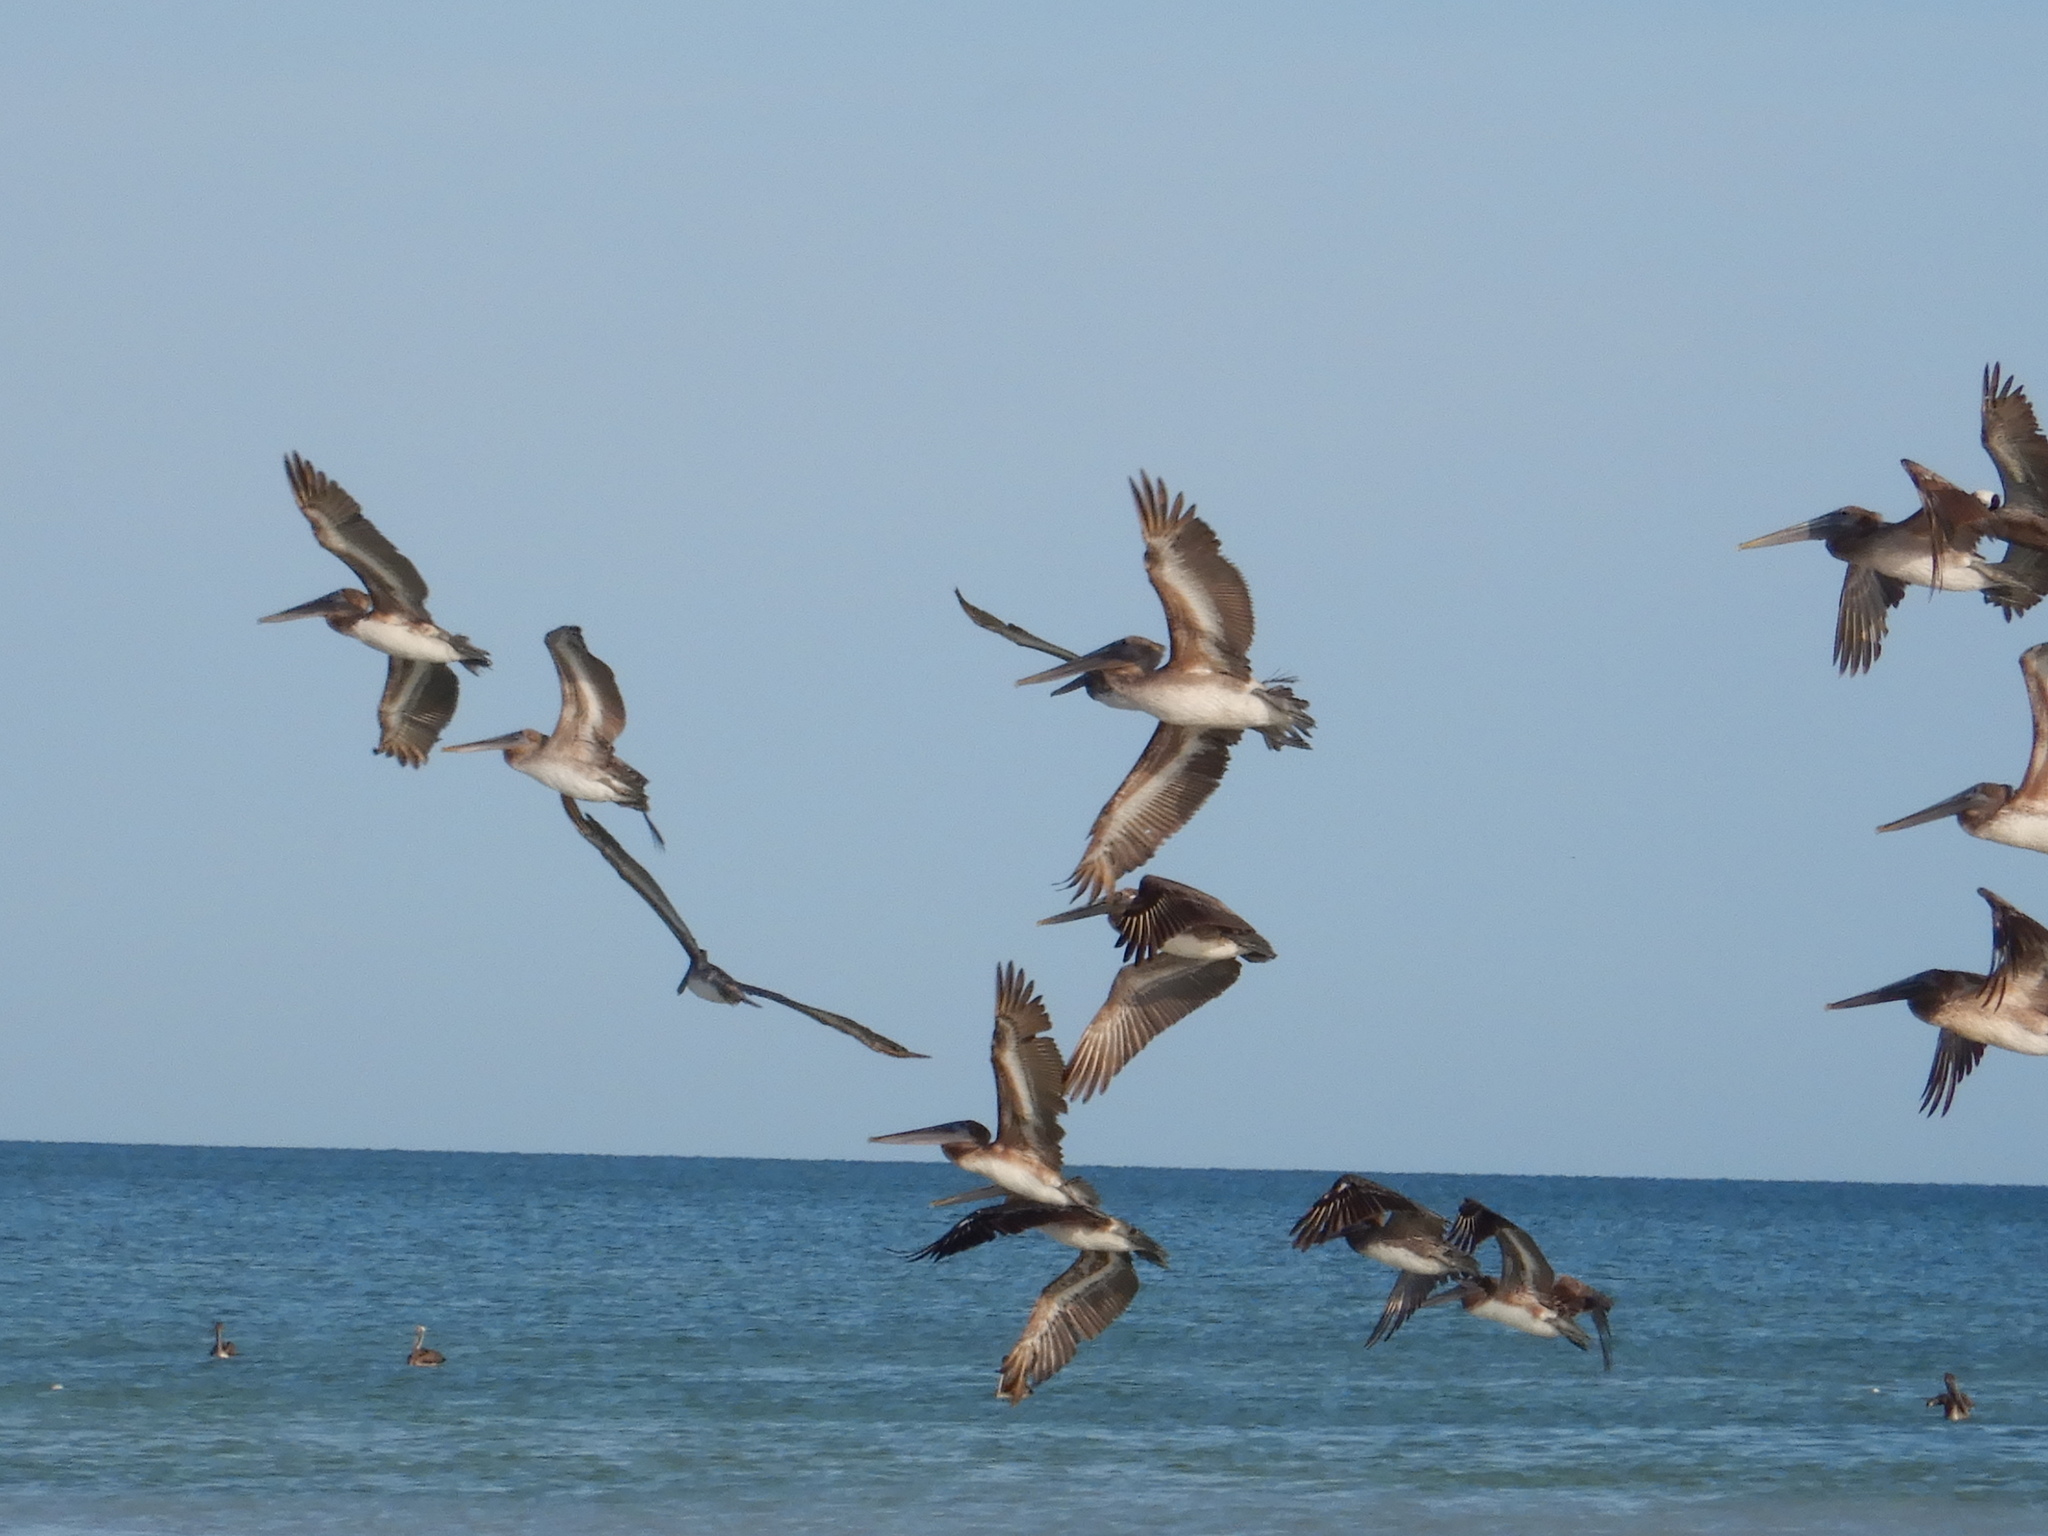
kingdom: Animalia
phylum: Chordata
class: Aves
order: Pelecaniformes
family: Pelecanidae
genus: Pelecanus
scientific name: Pelecanus occidentalis
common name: Brown pelican
